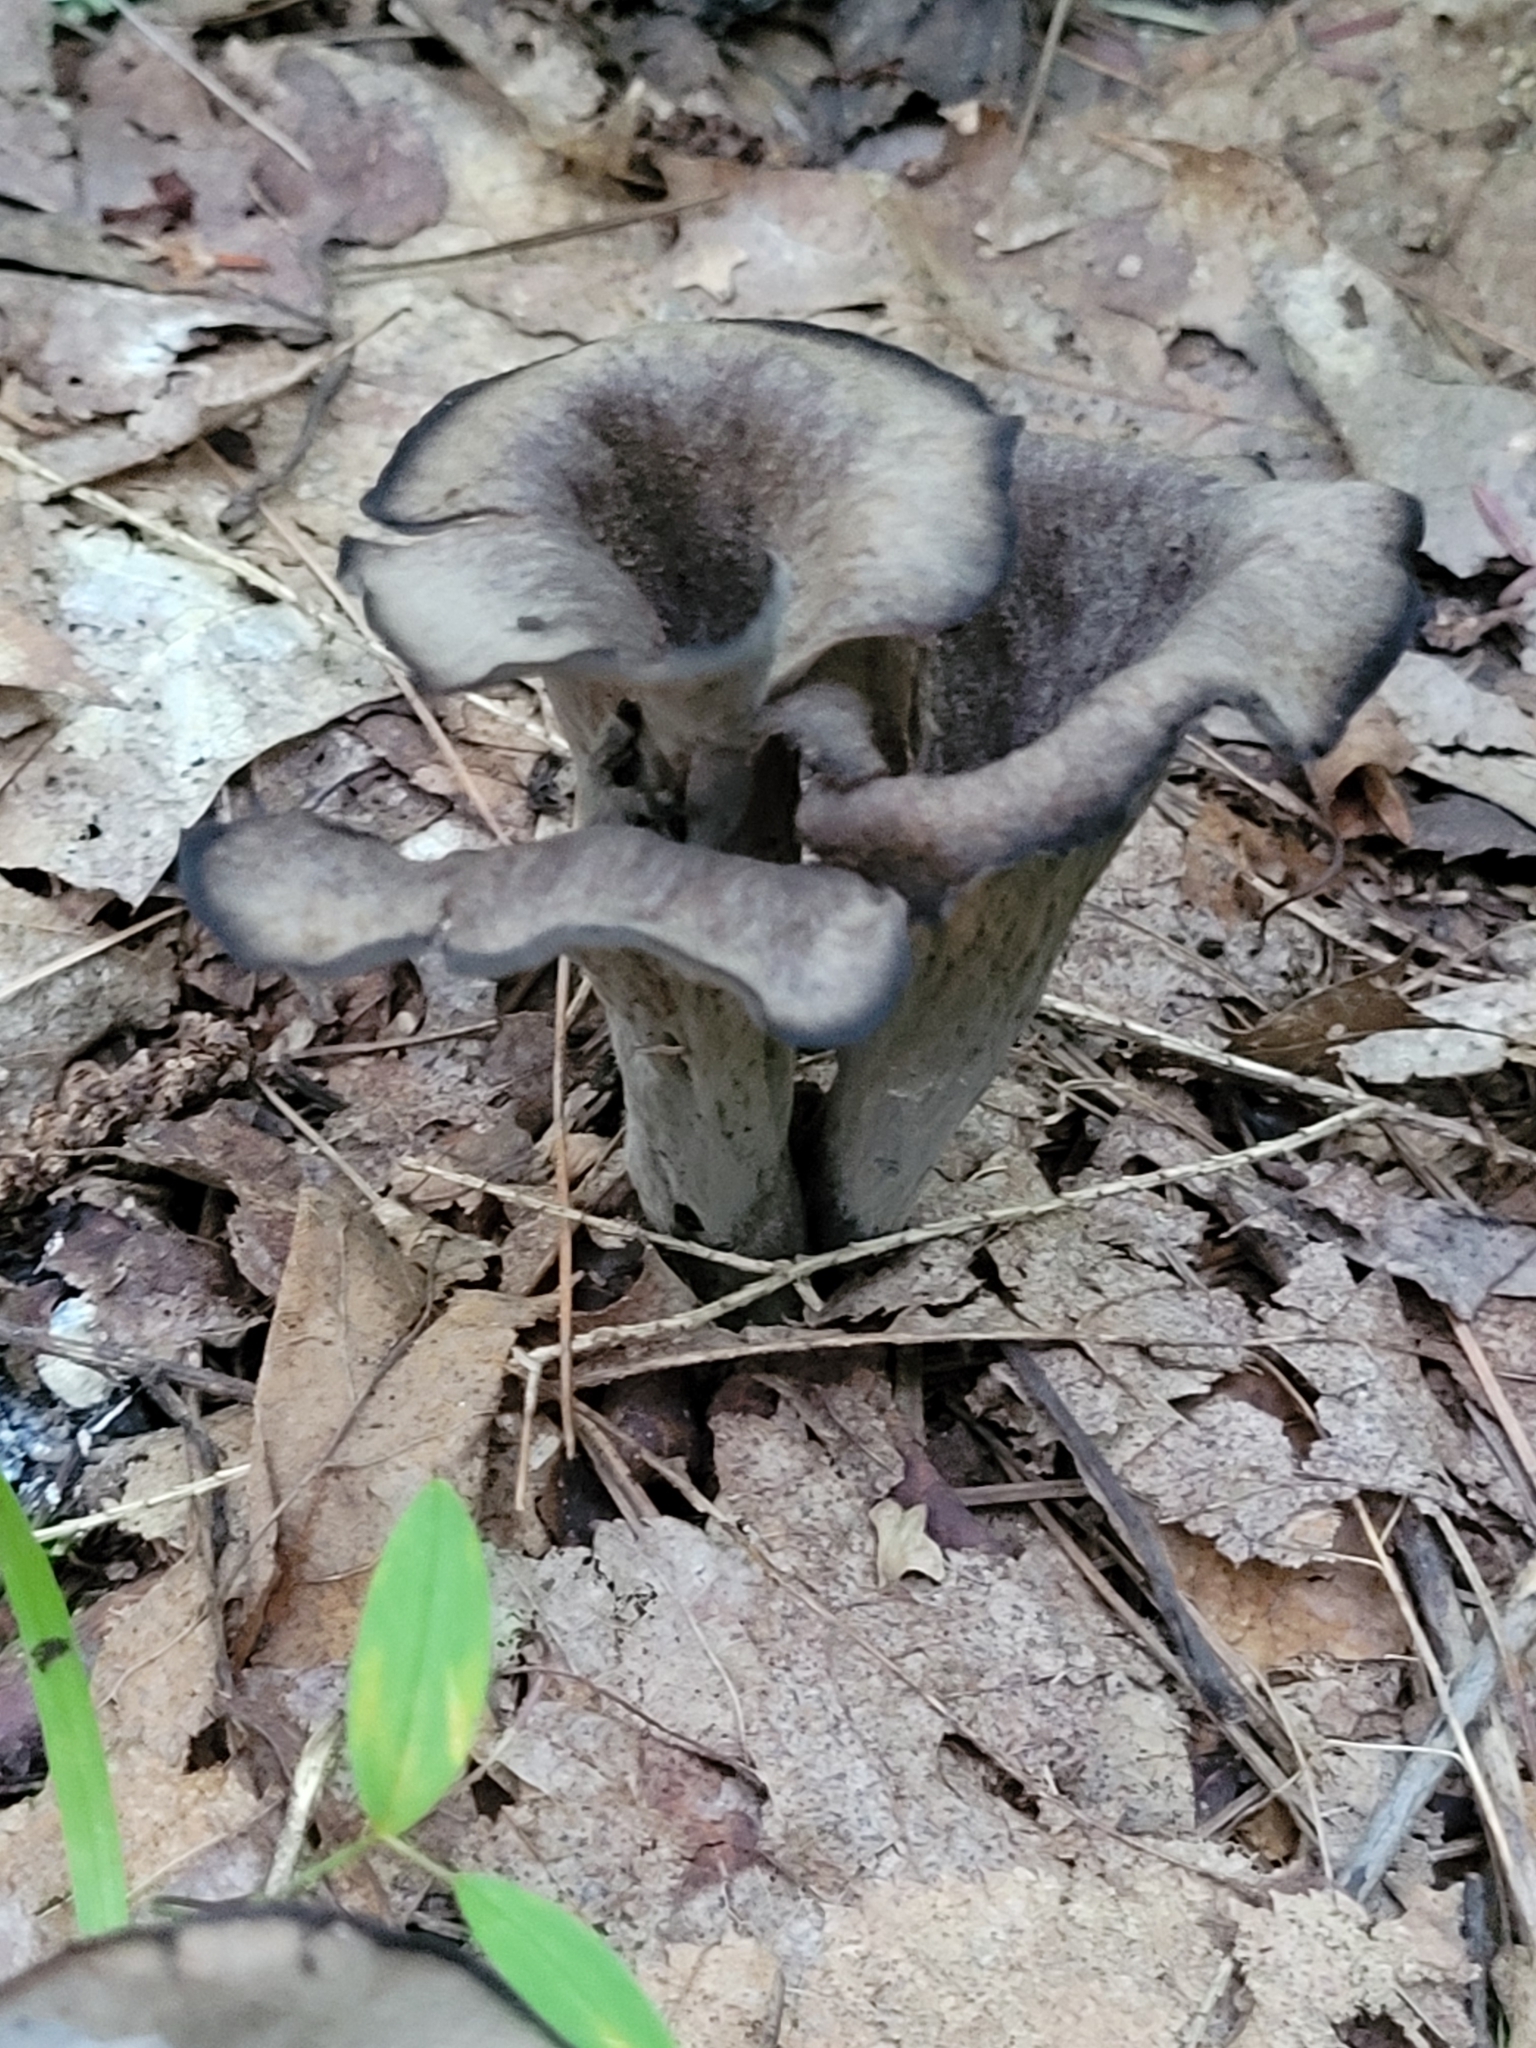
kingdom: Fungi
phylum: Basidiomycota
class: Agaricomycetes
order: Cantharellales
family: Hydnaceae
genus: Craterellus
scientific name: Craterellus cornucopioides
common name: Horn of plenty
